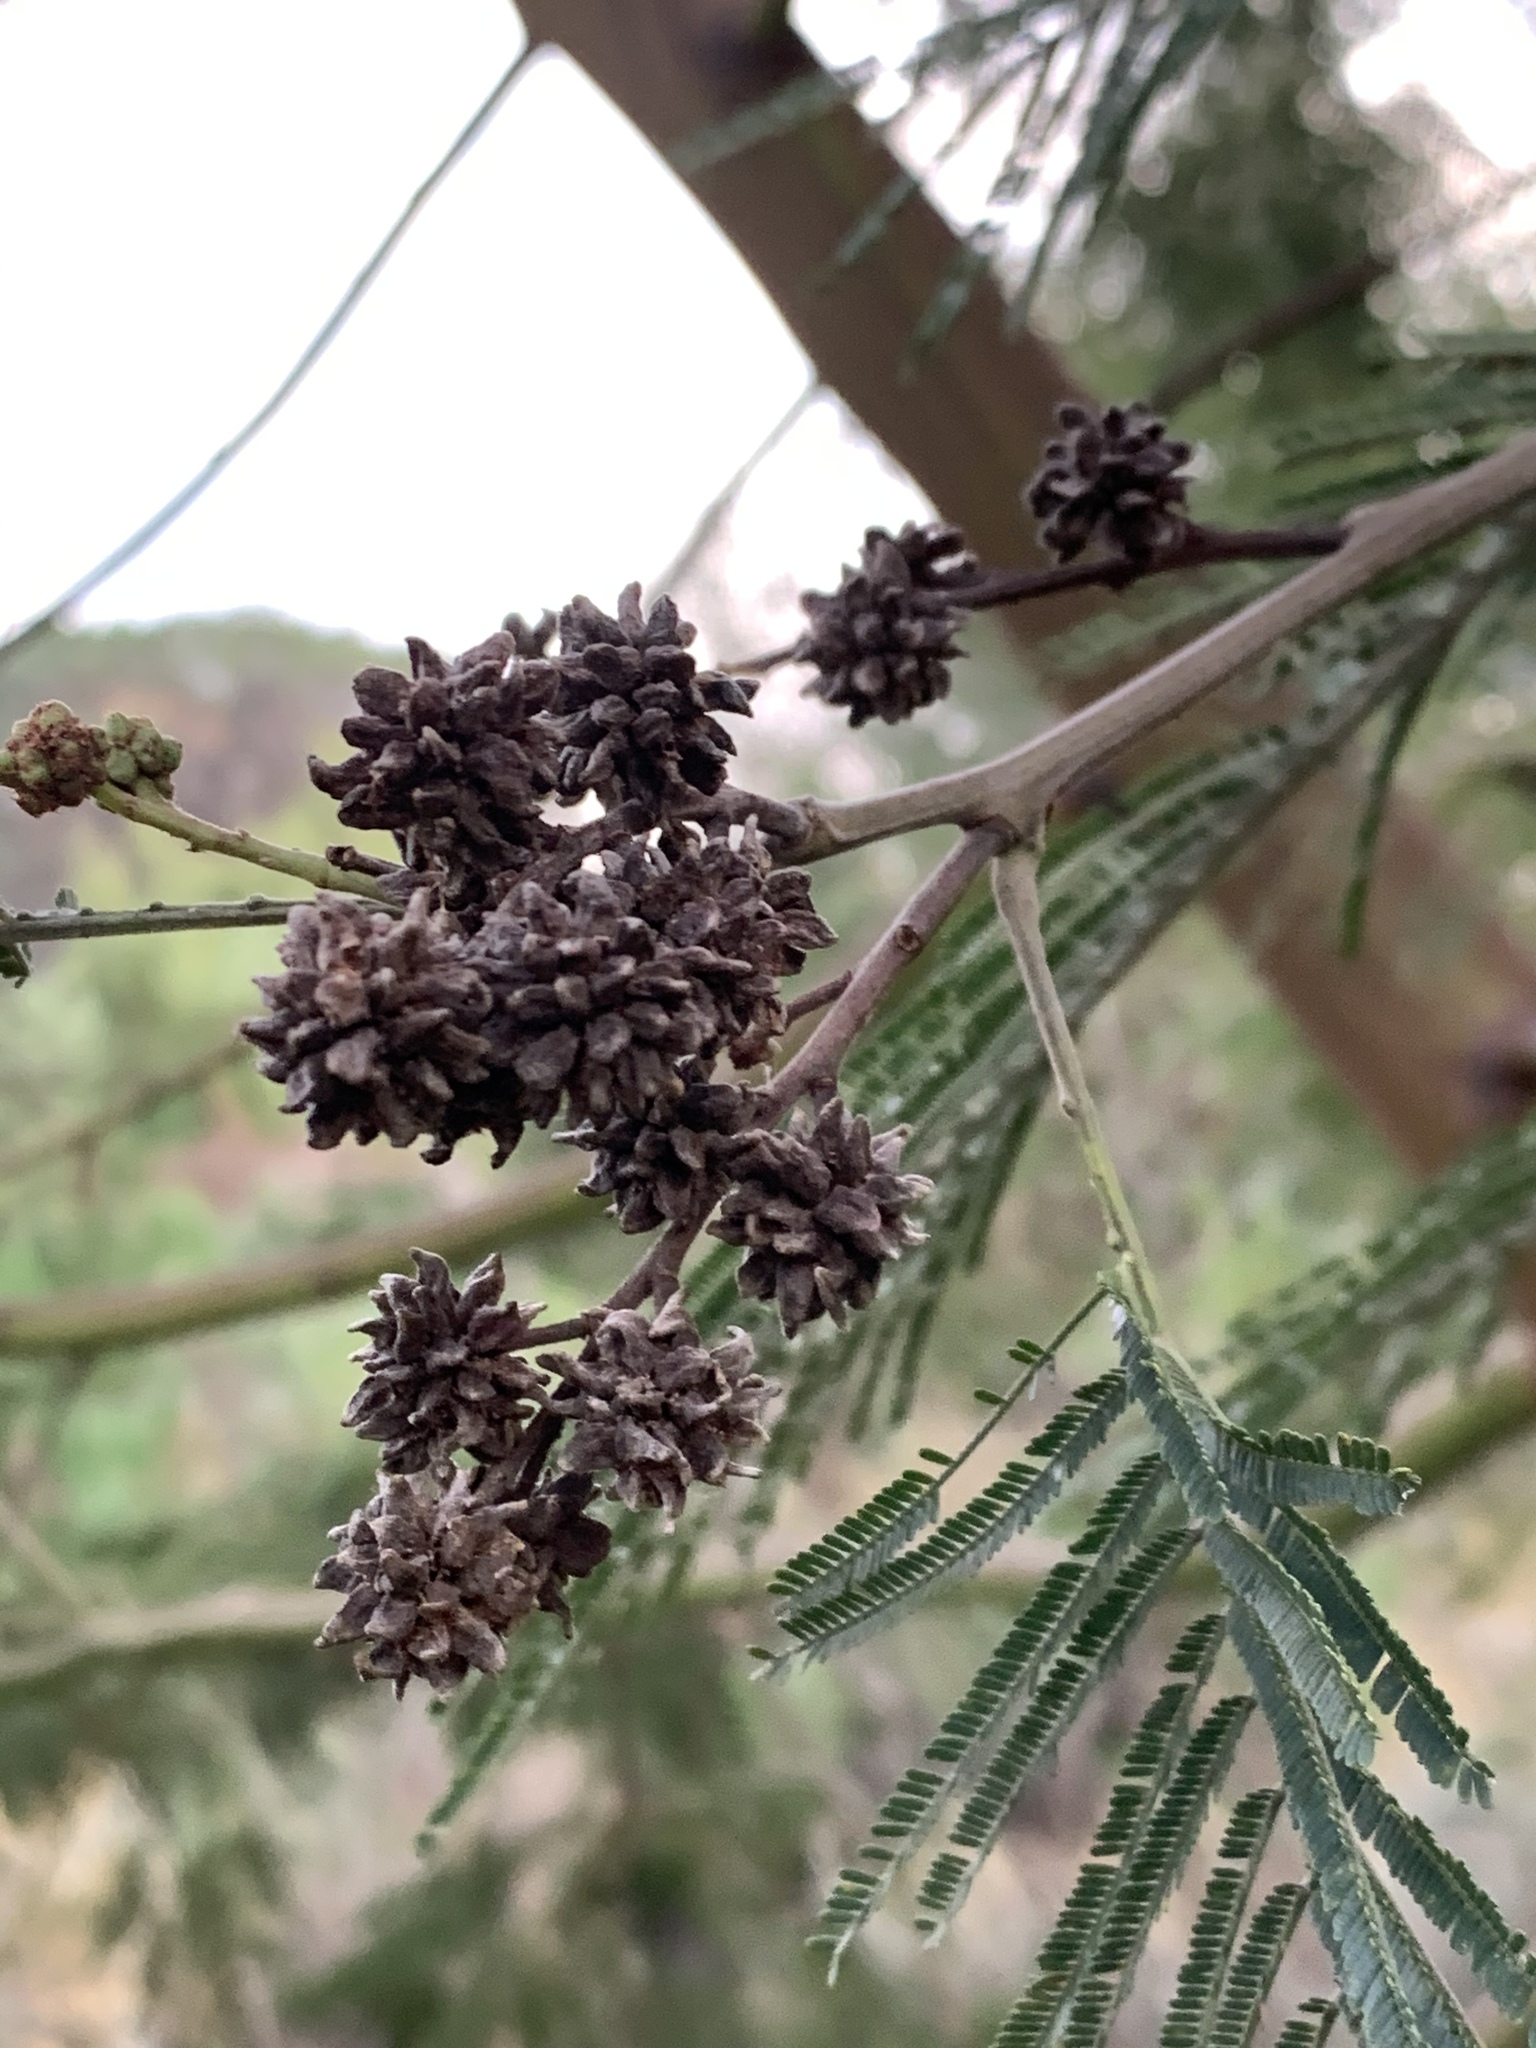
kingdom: Animalia
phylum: Arthropoda
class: Insecta
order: Diptera
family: Cecidomyiidae
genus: Dasineura
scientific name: Dasineura rubiformis
